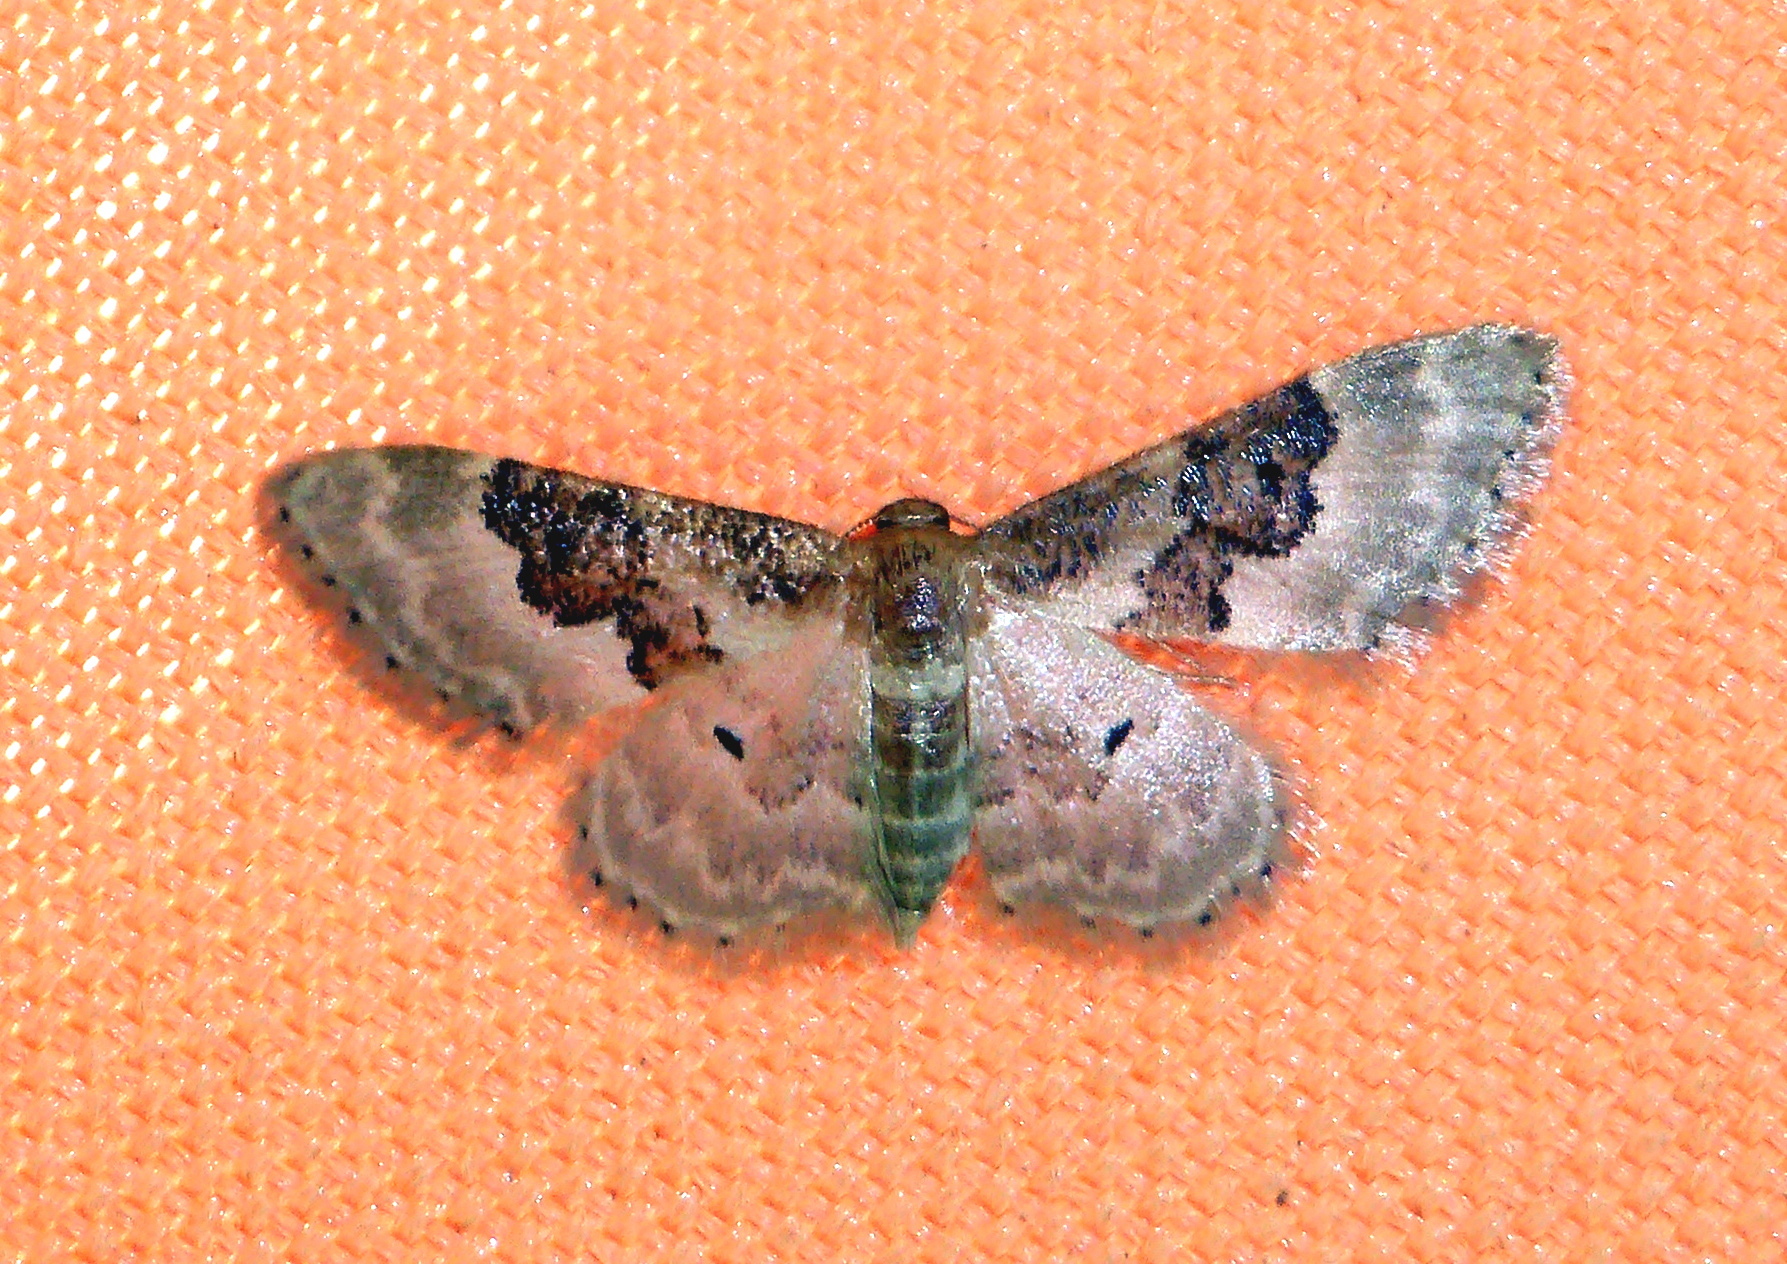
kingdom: Animalia
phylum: Arthropoda
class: Insecta
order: Lepidoptera
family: Geometridae
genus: Idaea
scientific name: Idaea rusticata
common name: Least carpet
